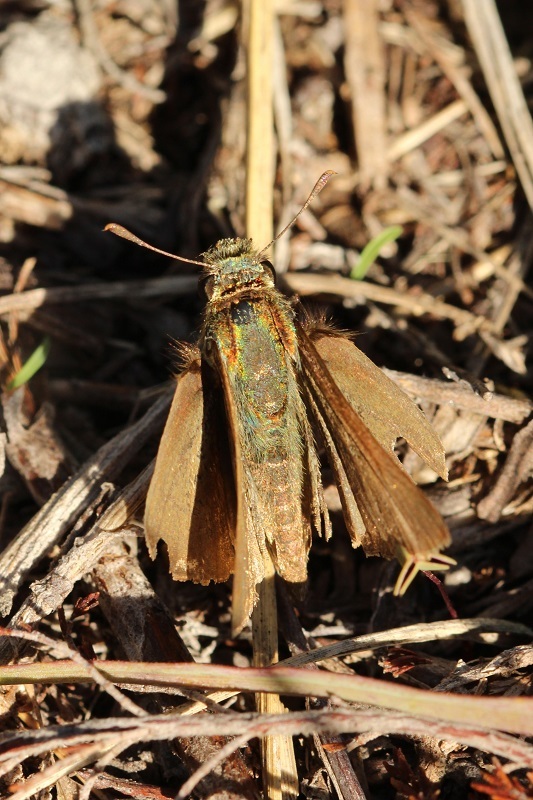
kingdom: Animalia
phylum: Arthropoda
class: Insecta
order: Lepidoptera
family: Hesperiidae
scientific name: Hesperiidae
